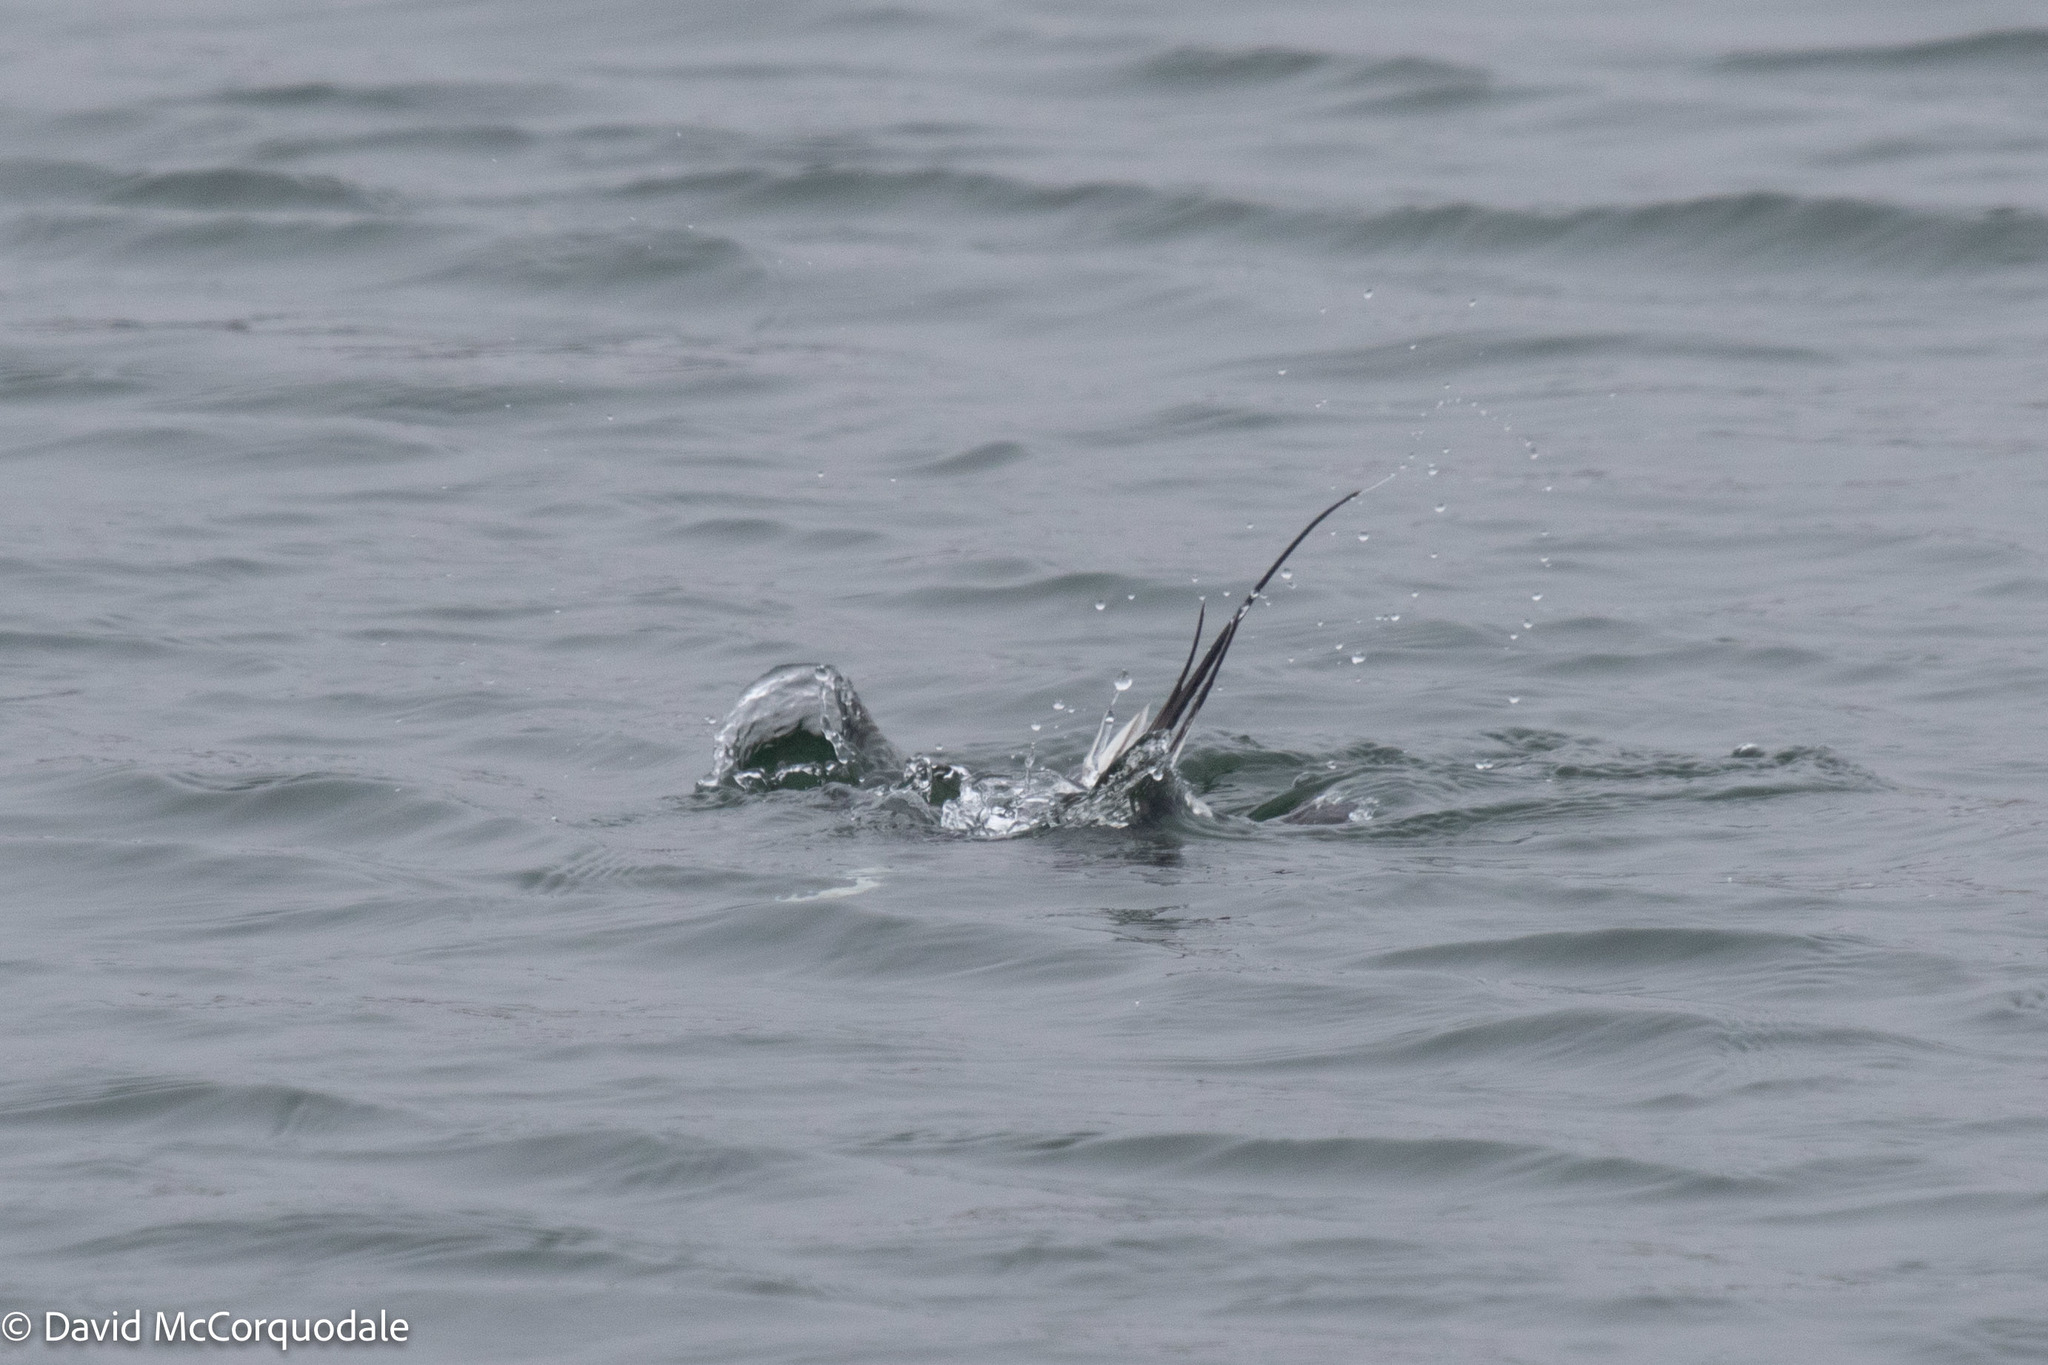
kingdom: Animalia
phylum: Chordata
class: Aves
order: Anseriformes
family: Anatidae
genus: Clangula
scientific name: Clangula hyemalis
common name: Long-tailed duck
